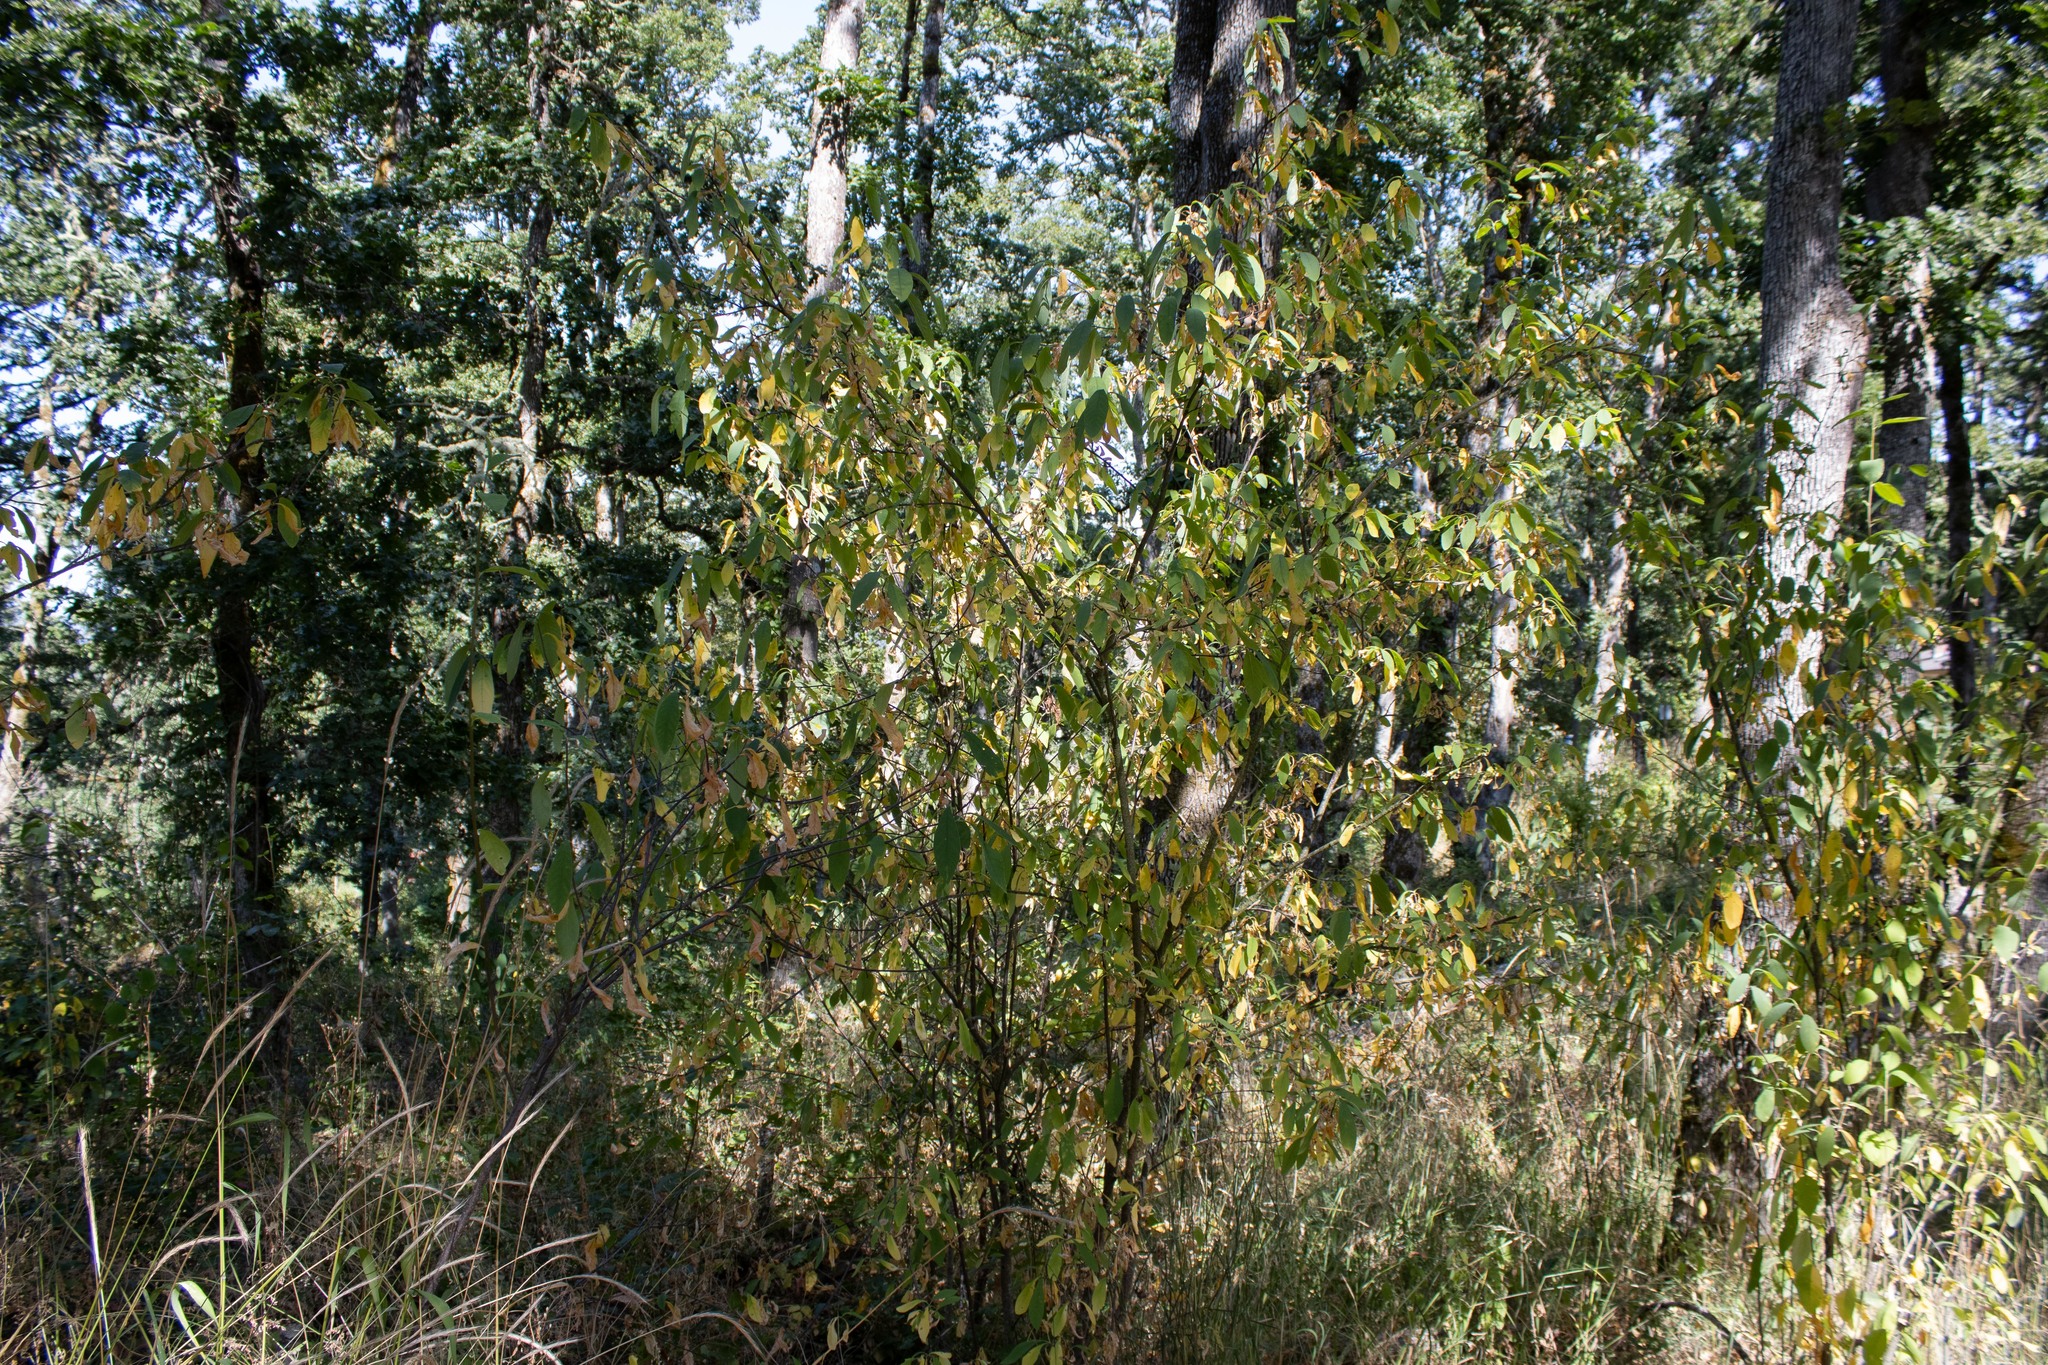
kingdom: Plantae
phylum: Tracheophyta
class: Magnoliopsida
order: Rosales
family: Rosaceae
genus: Oemleria
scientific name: Oemleria cerasiformis
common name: Osoberry
